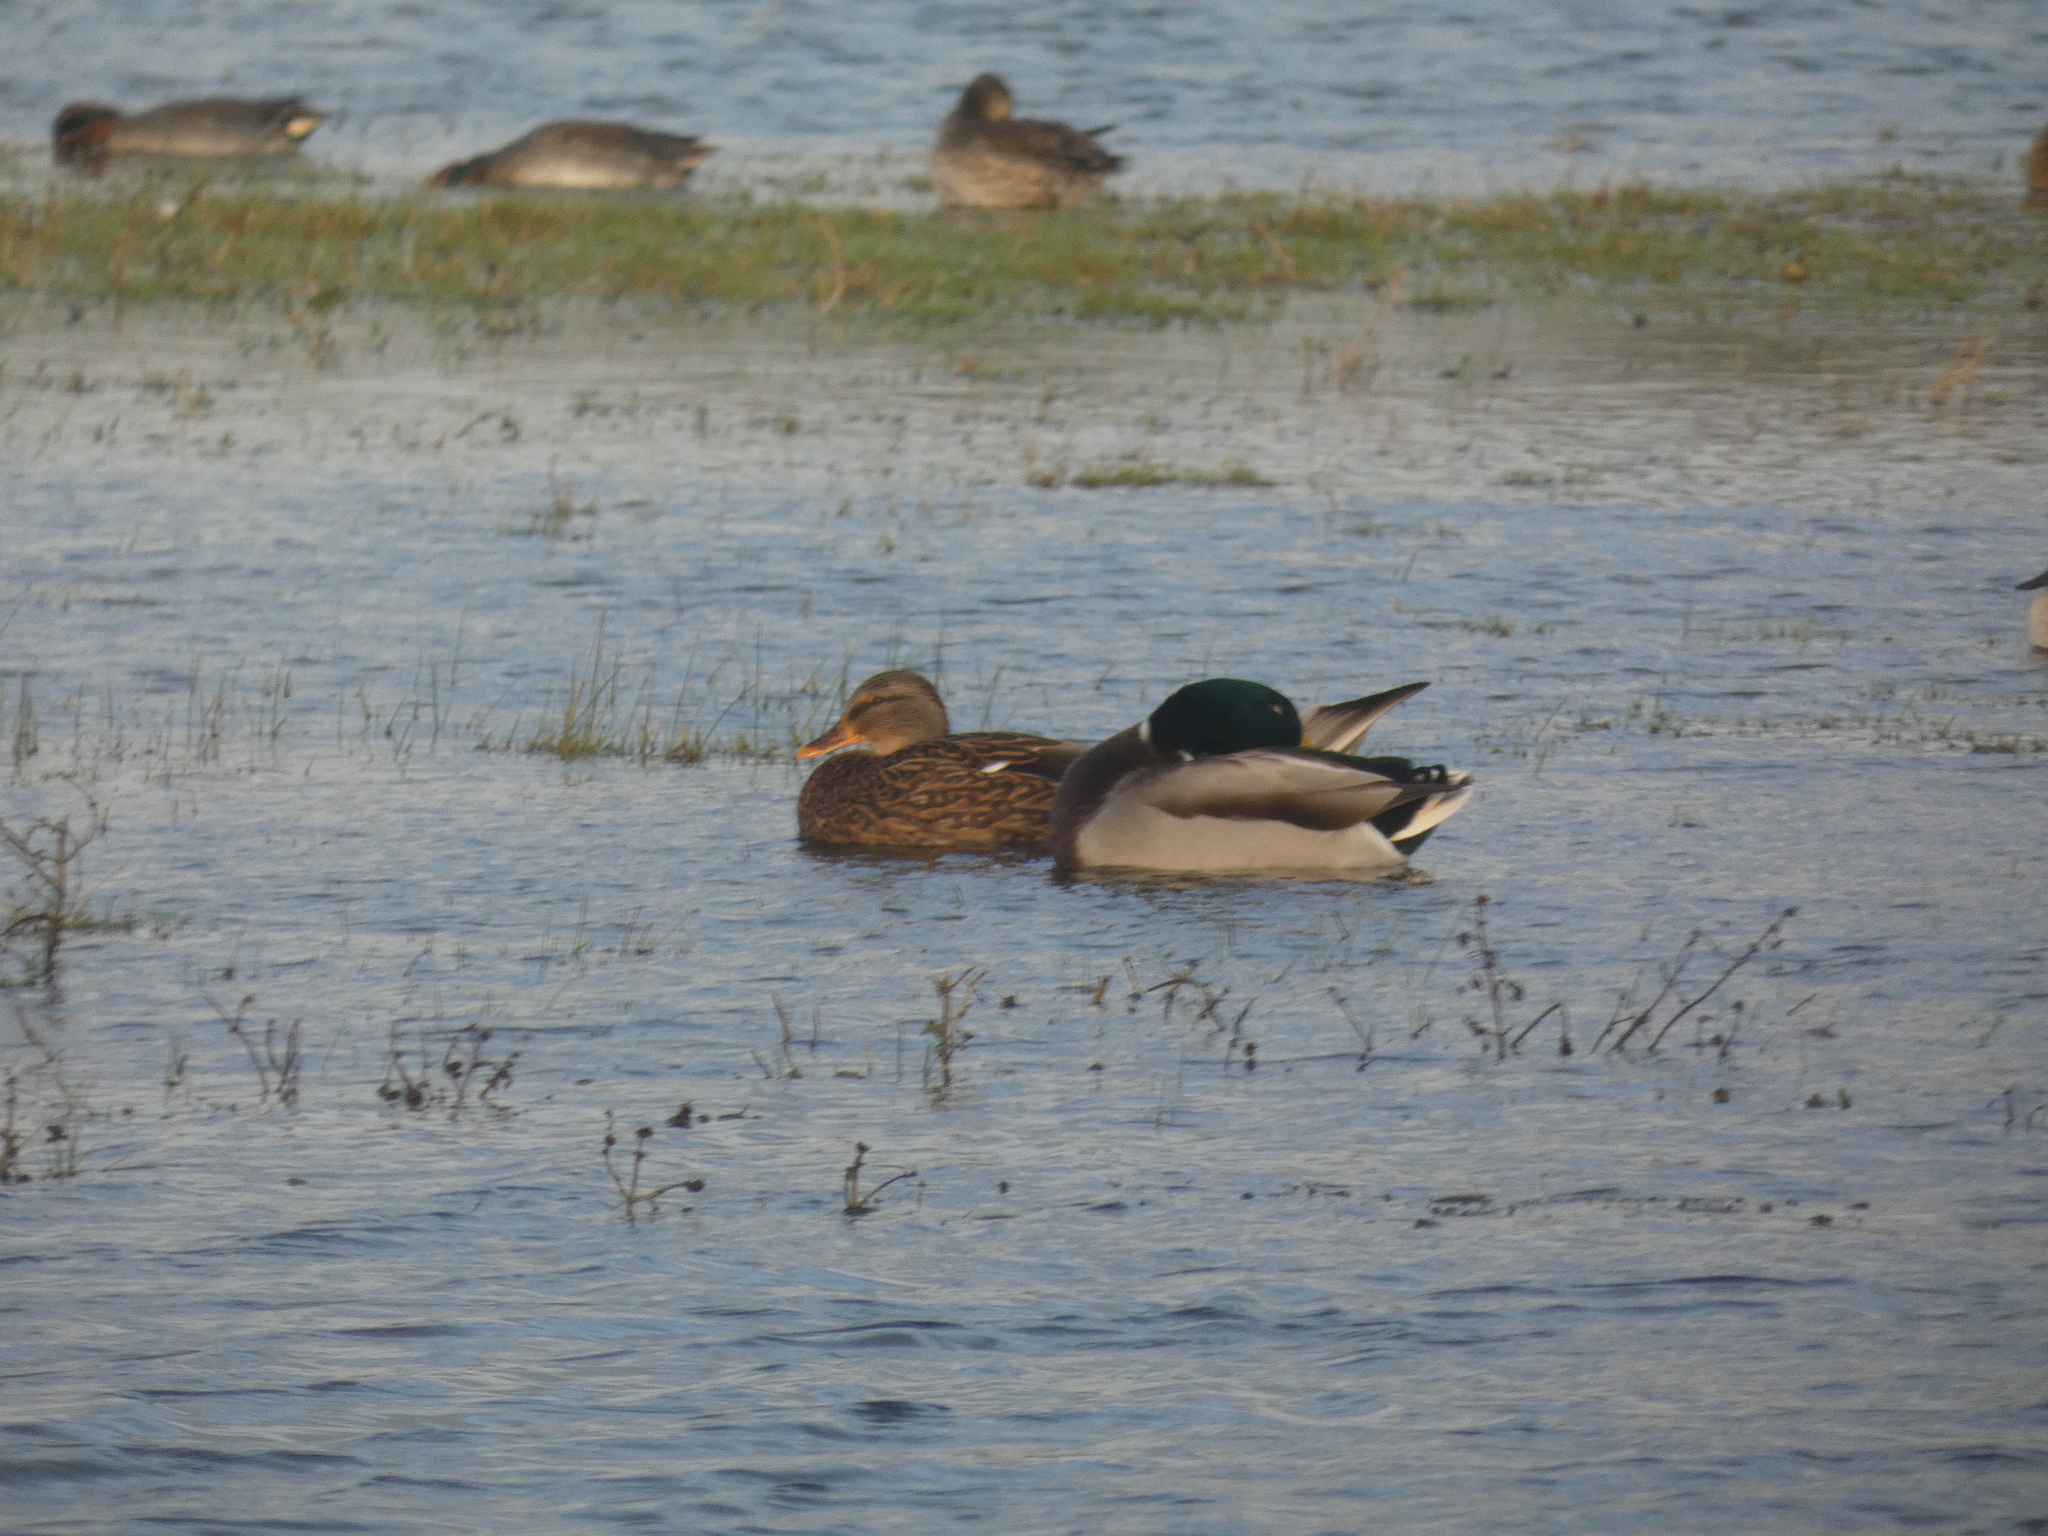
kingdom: Animalia
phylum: Chordata
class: Aves
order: Anseriformes
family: Anatidae
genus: Anas
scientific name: Anas platyrhynchos
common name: Mallard
